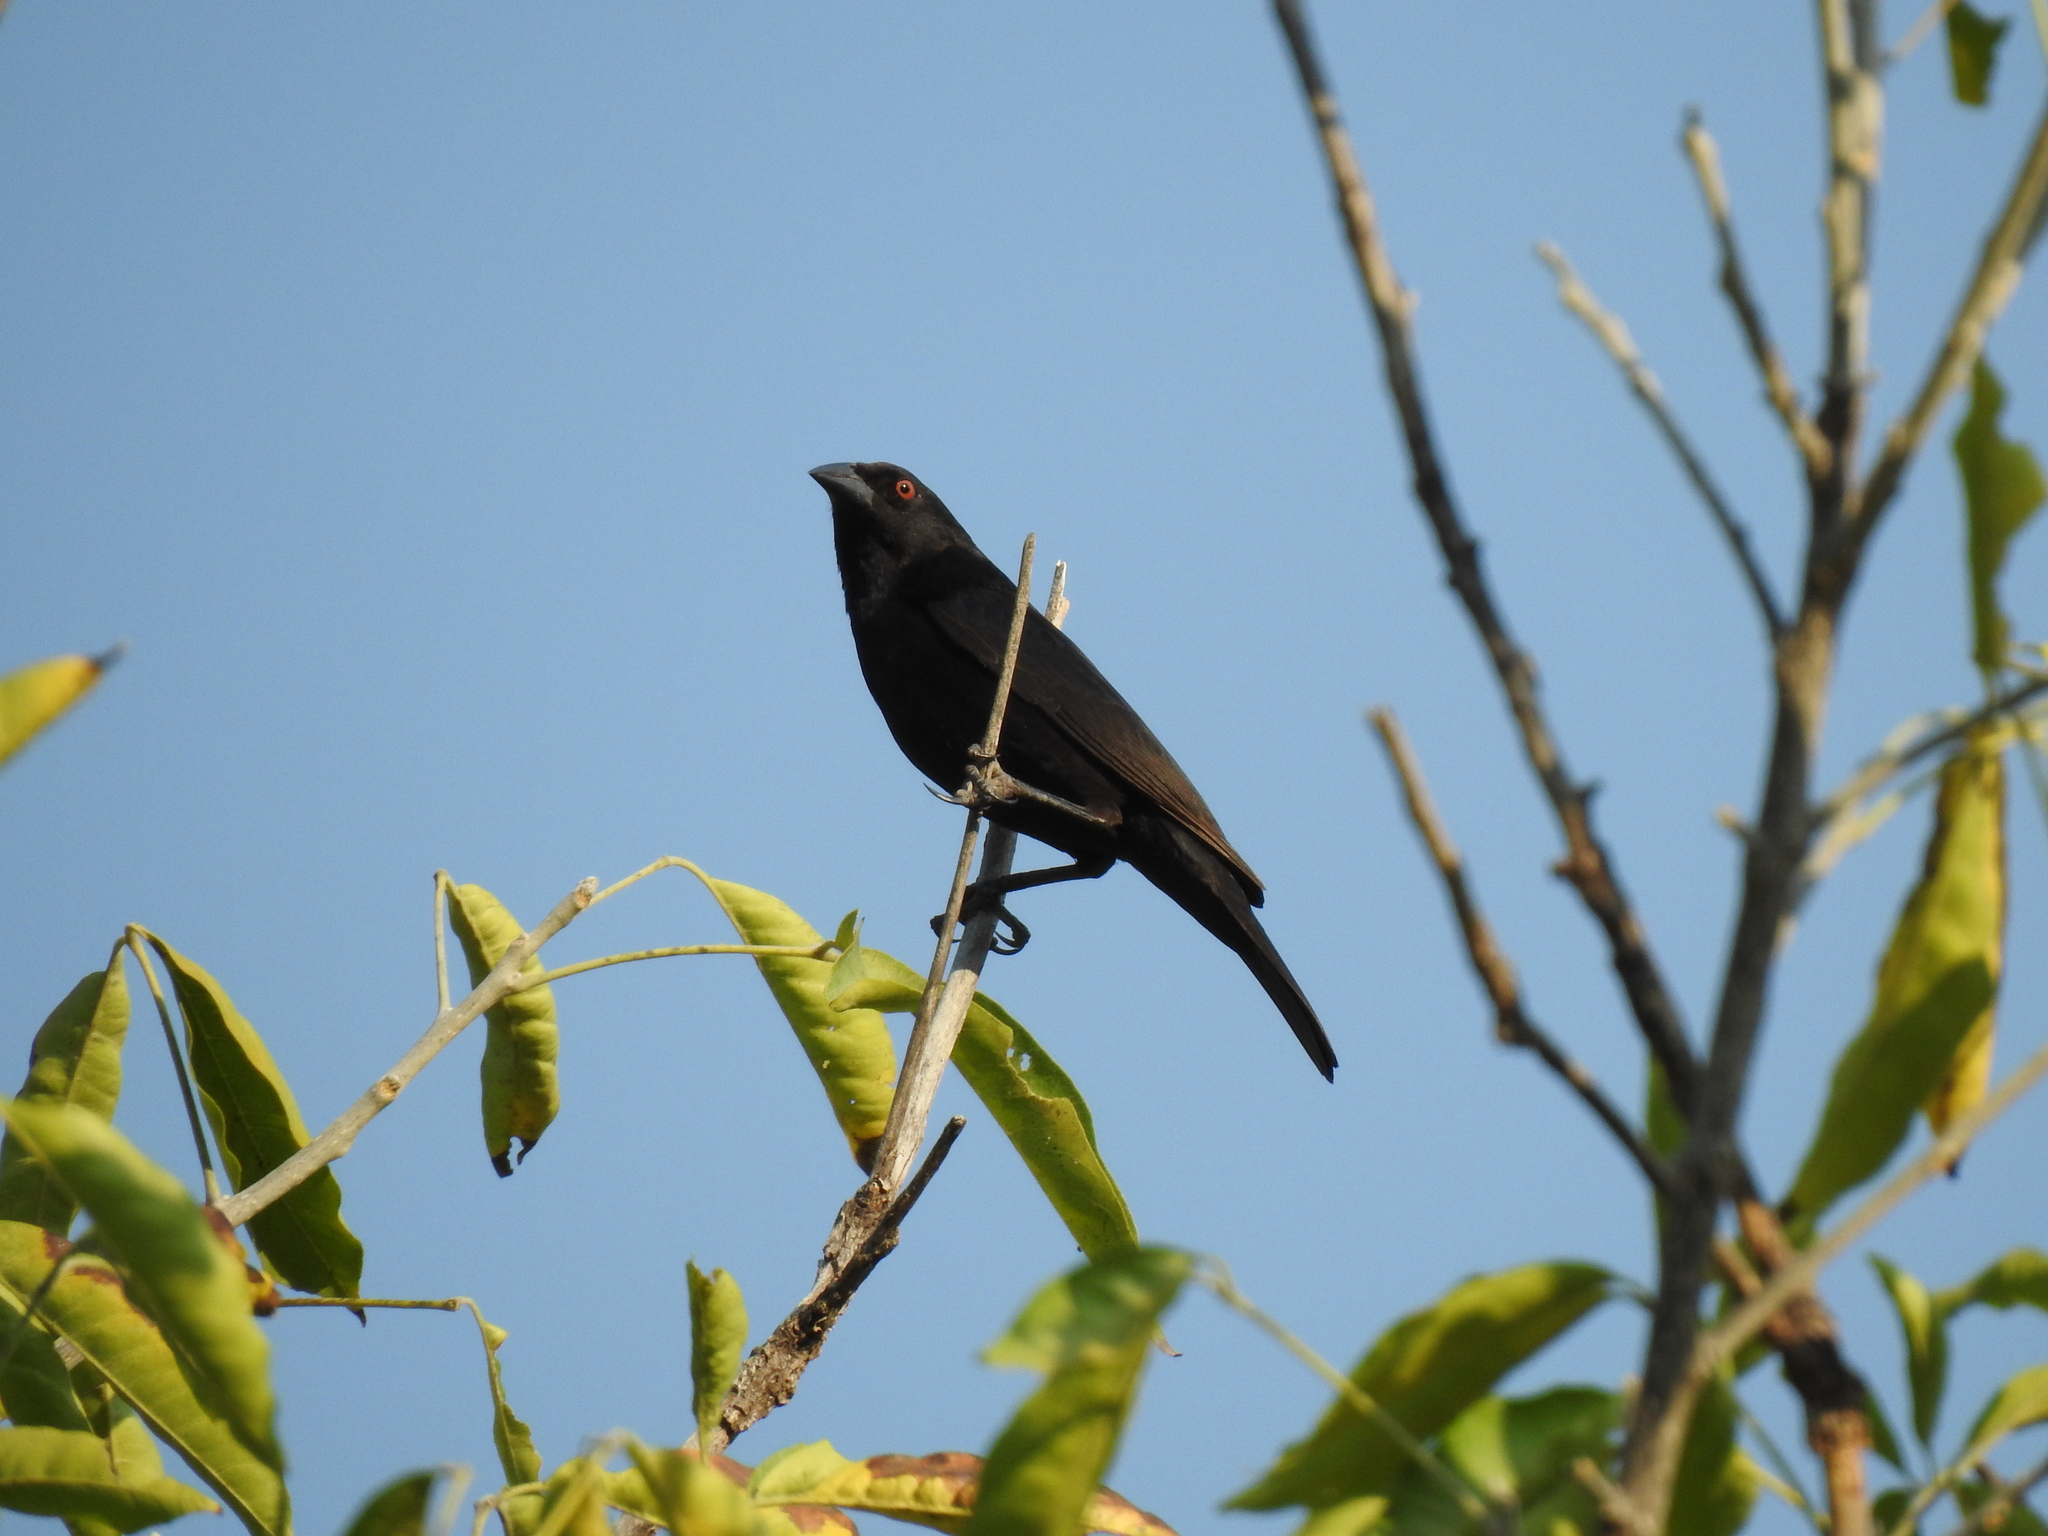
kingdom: Animalia
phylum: Chordata
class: Aves
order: Passeriformes
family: Icteridae
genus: Molothrus
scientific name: Molothrus aeneus
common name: Bronzed cowbird
